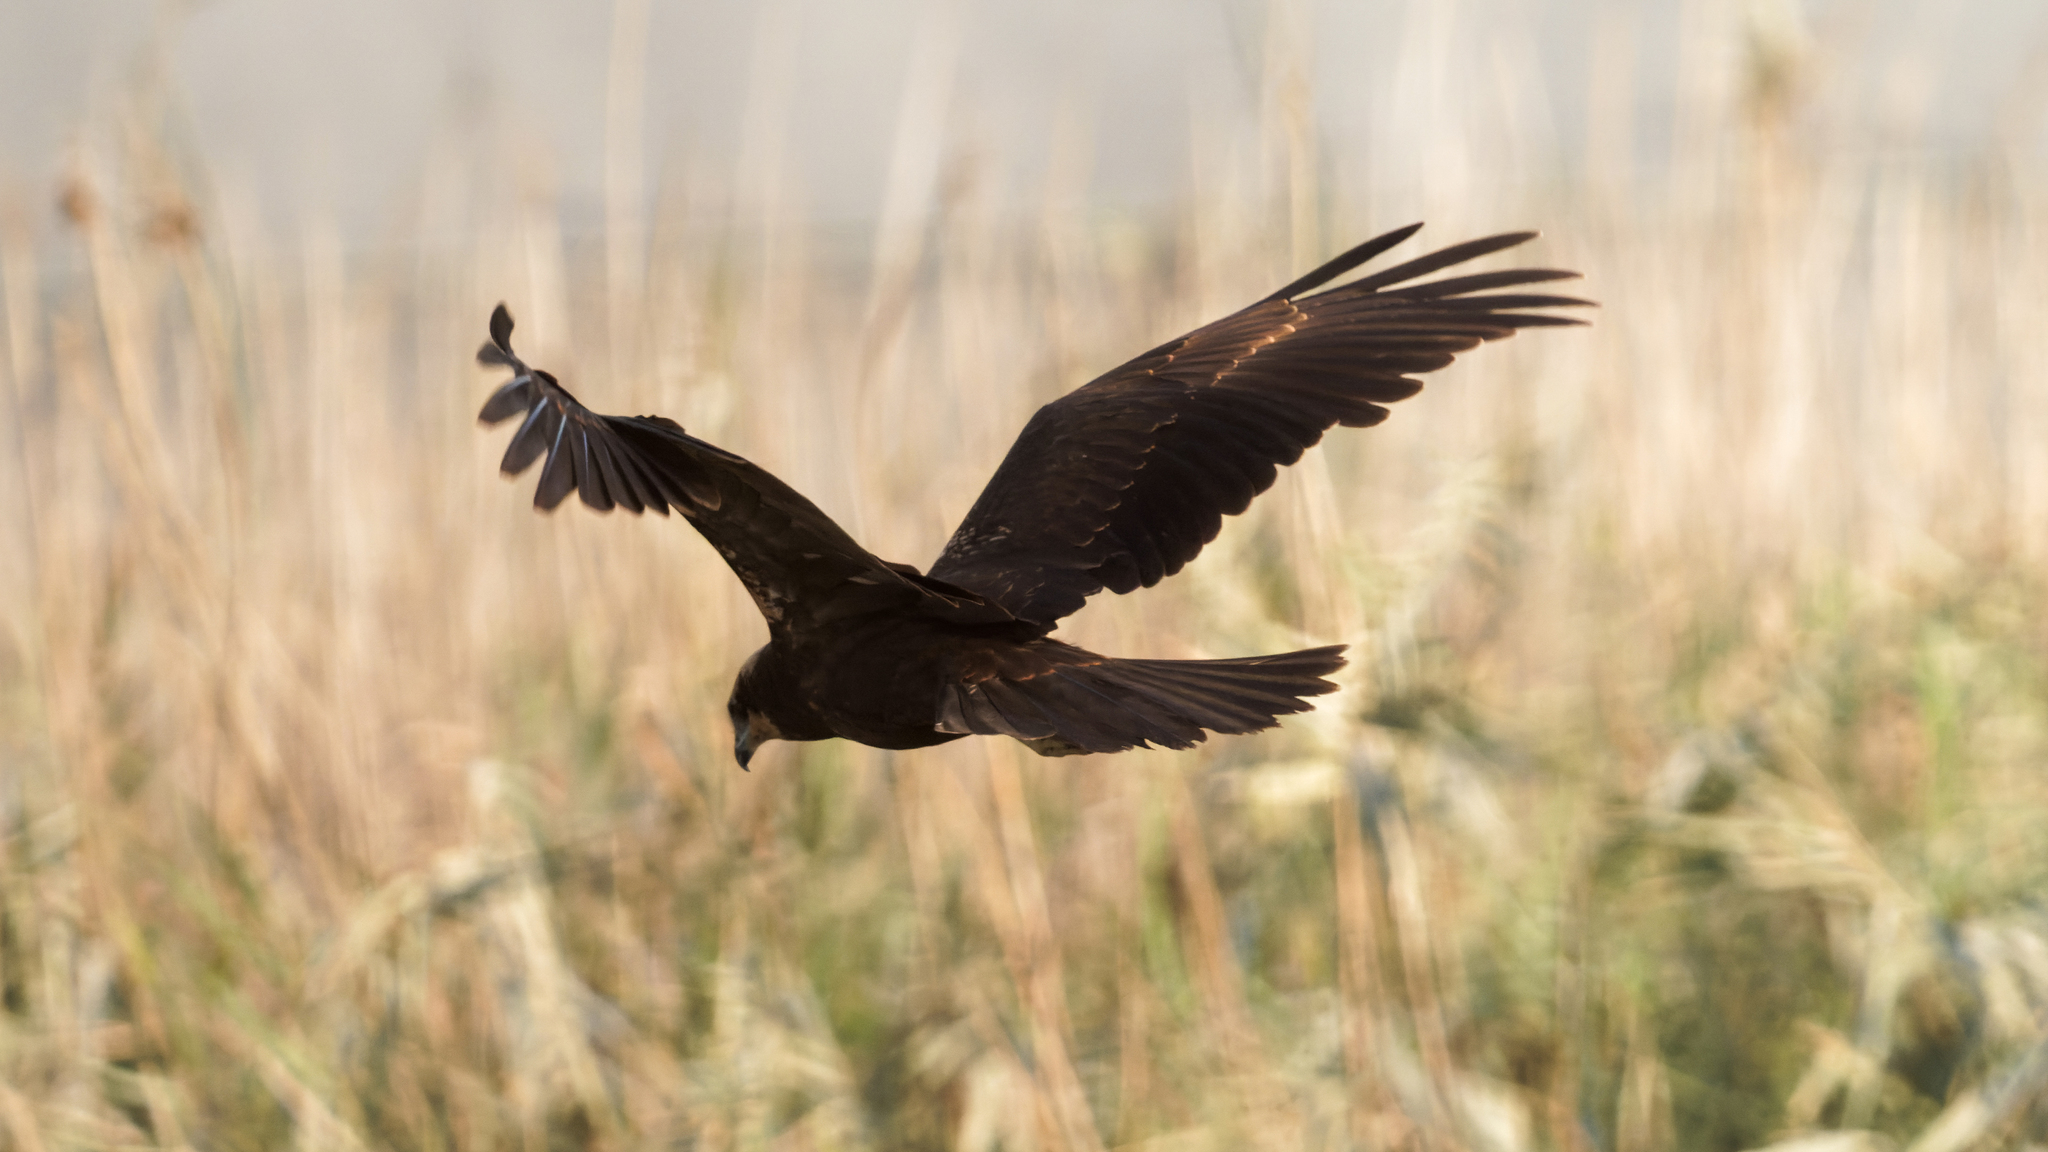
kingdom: Animalia
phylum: Chordata
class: Aves
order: Accipitriformes
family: Accipitridae
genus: Circus
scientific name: Circus aeruginosus
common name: Western marsh harrier
